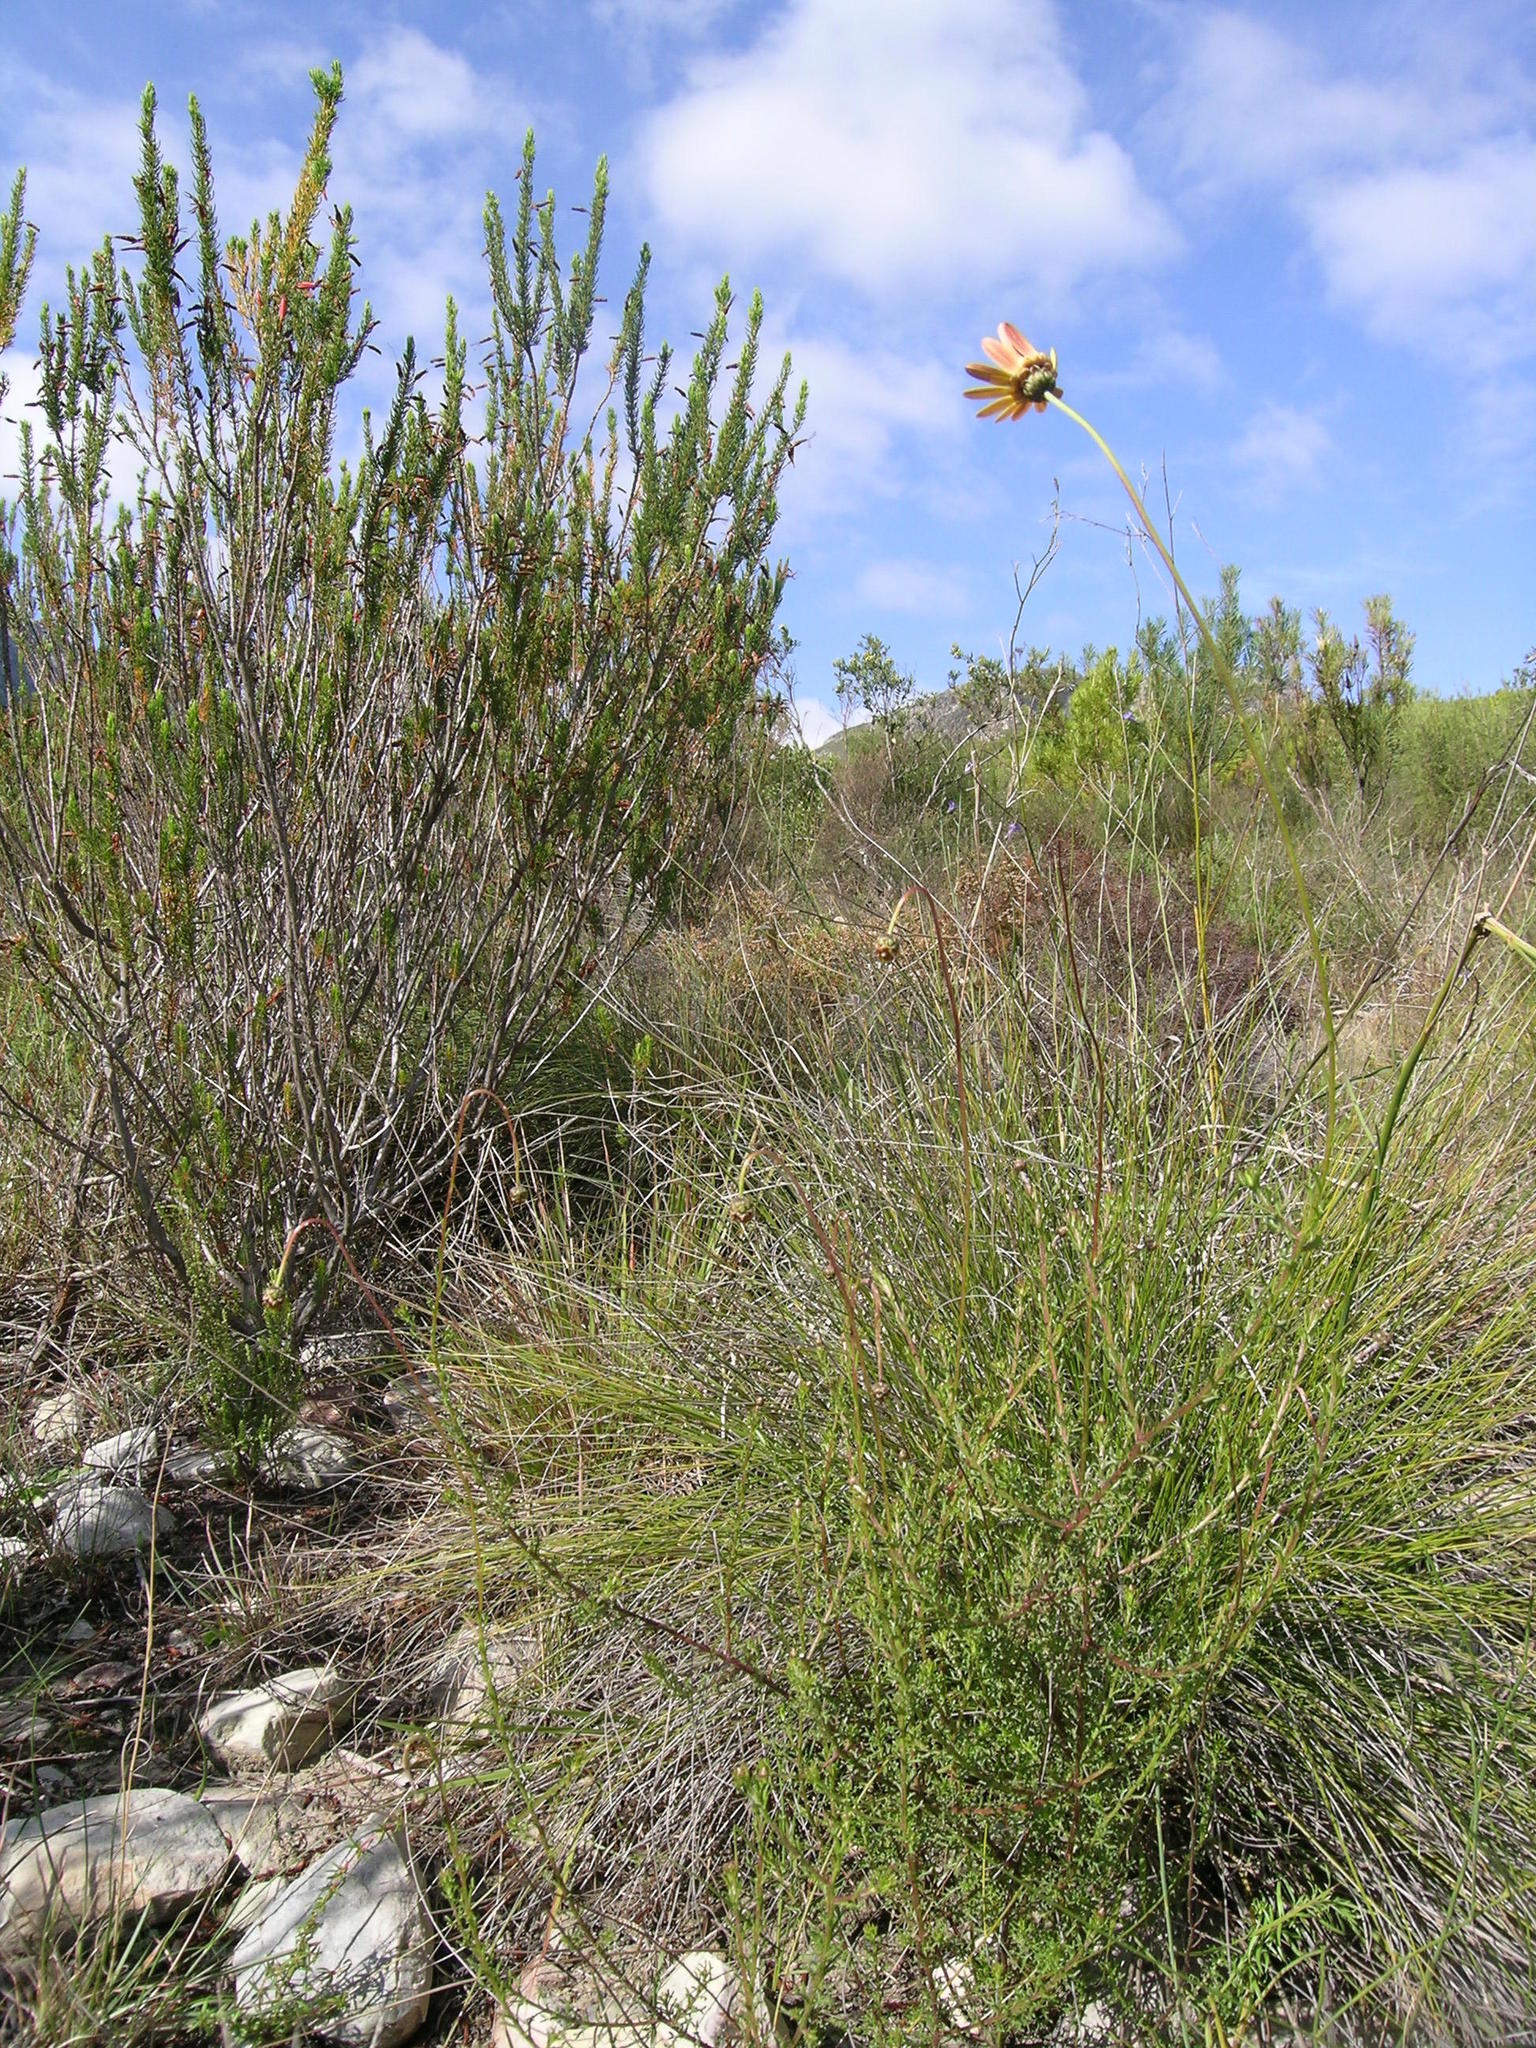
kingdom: Plantae
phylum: Tracheophyta
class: Magnoliopsida
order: Asterales
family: Asteraceae
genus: Ursinia
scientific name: Ursinia paleacea
